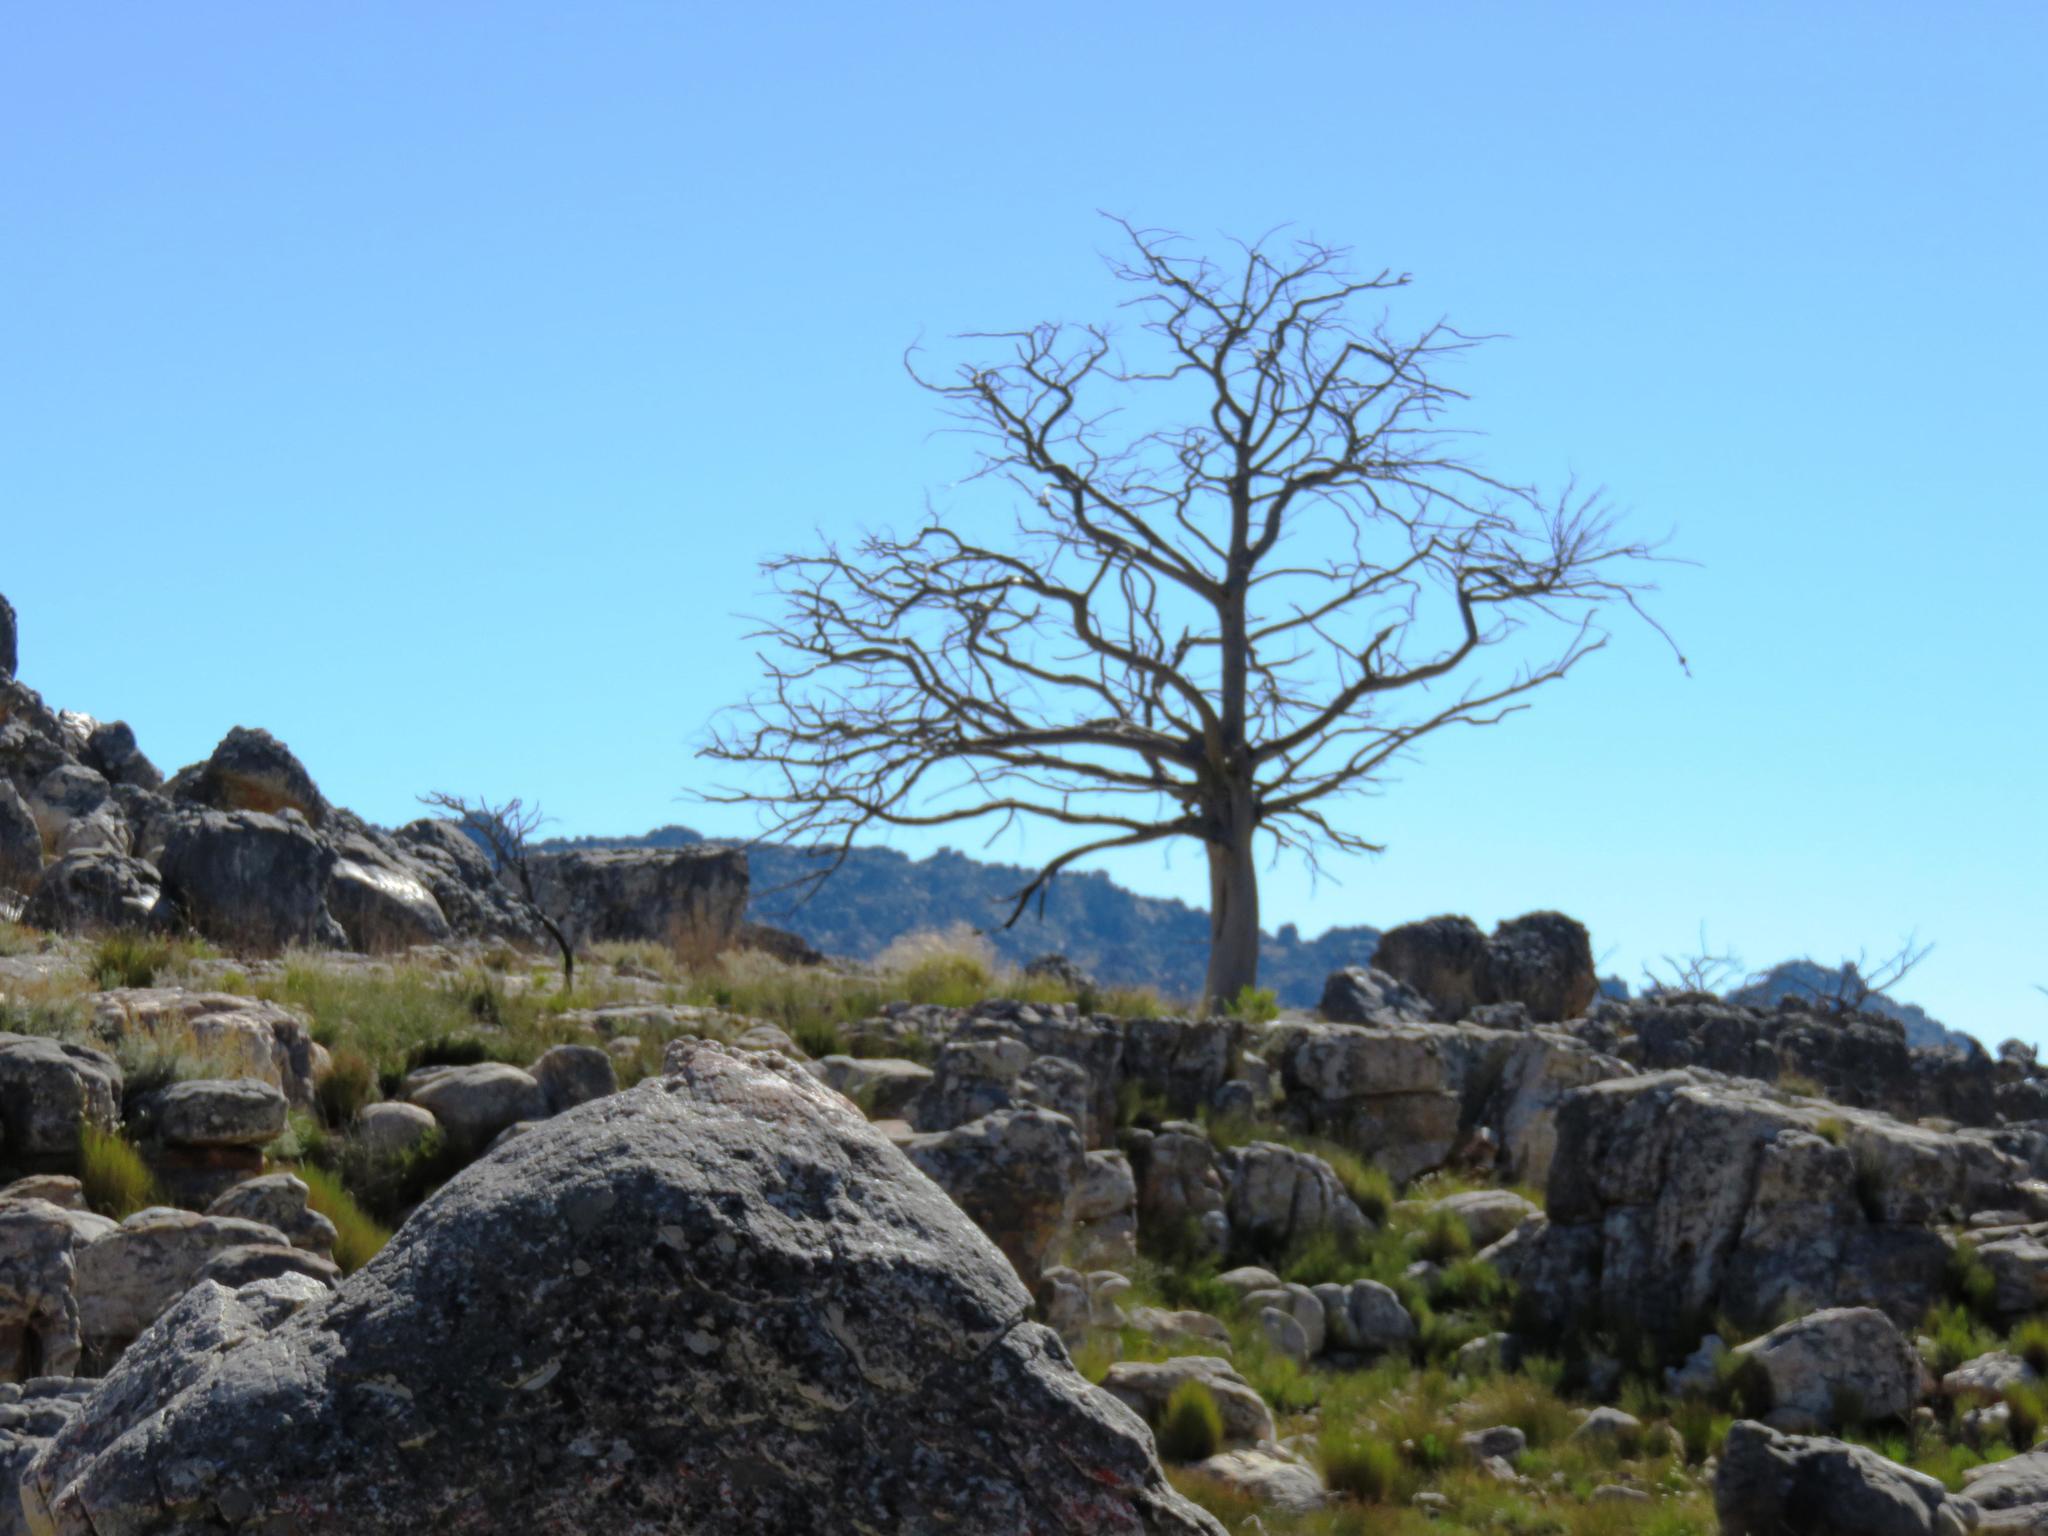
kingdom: Plantae
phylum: Tracheophyta
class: Pinopsida
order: Pinales
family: Cupressaceae
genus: Widdringtonia
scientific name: Widdringtonia nodiflora
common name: Cape cypress
